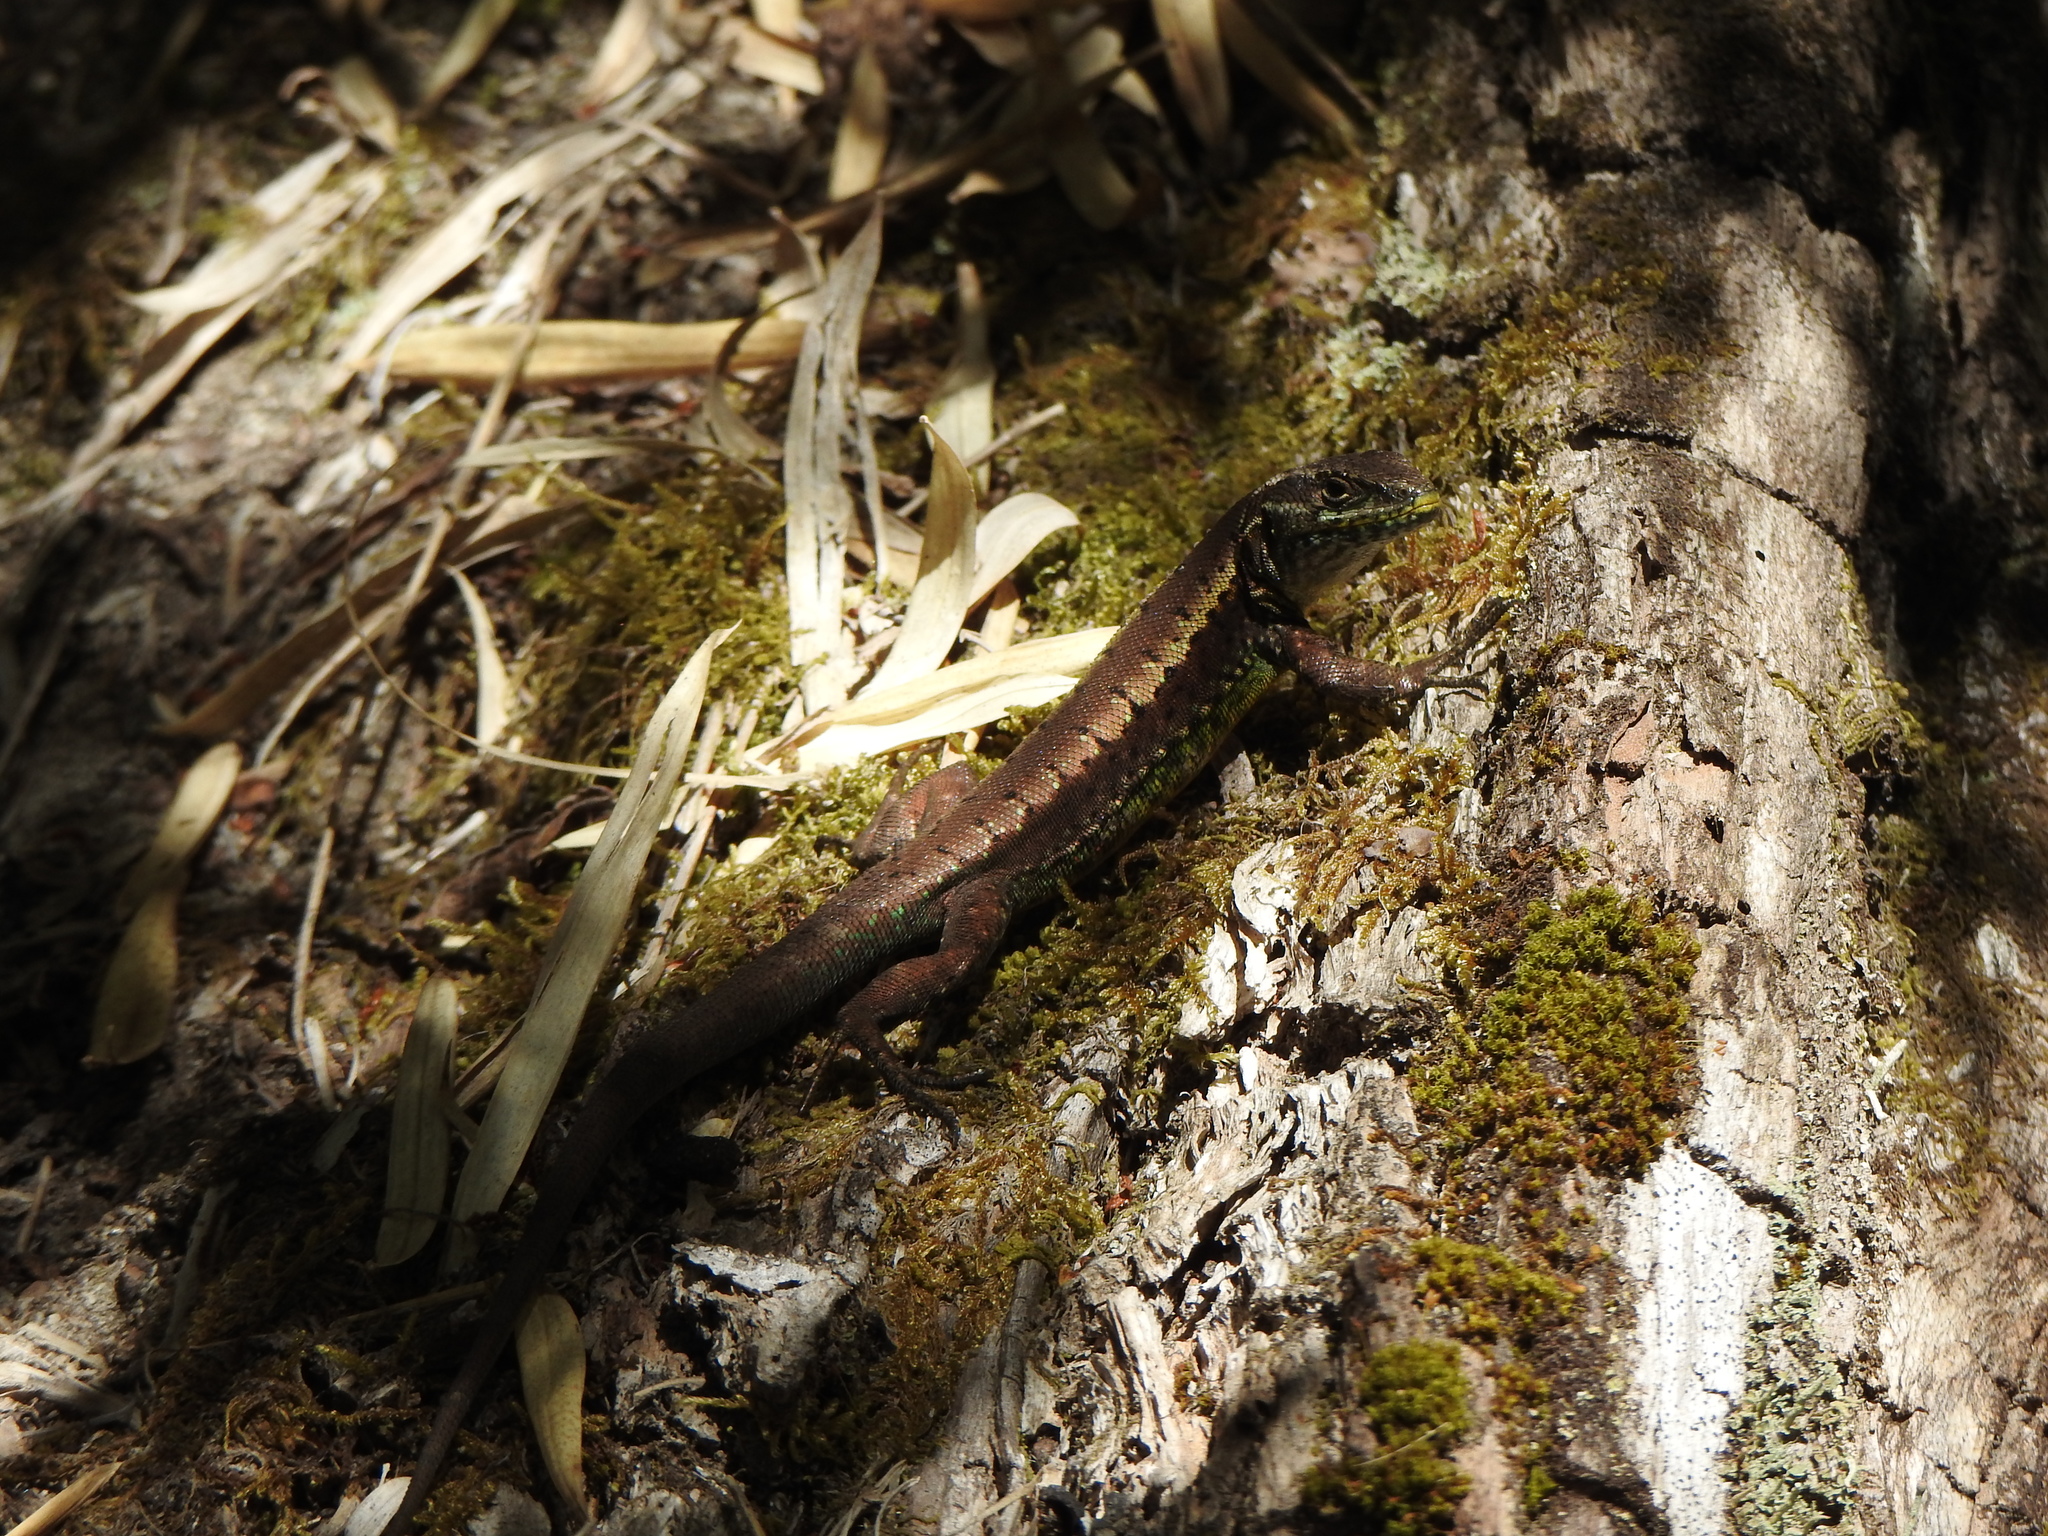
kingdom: Animalia
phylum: Chordata
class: Squamata
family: Liolaemidae
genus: Liolaemus
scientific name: Liolaemus pictus
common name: Painted tree iguana
